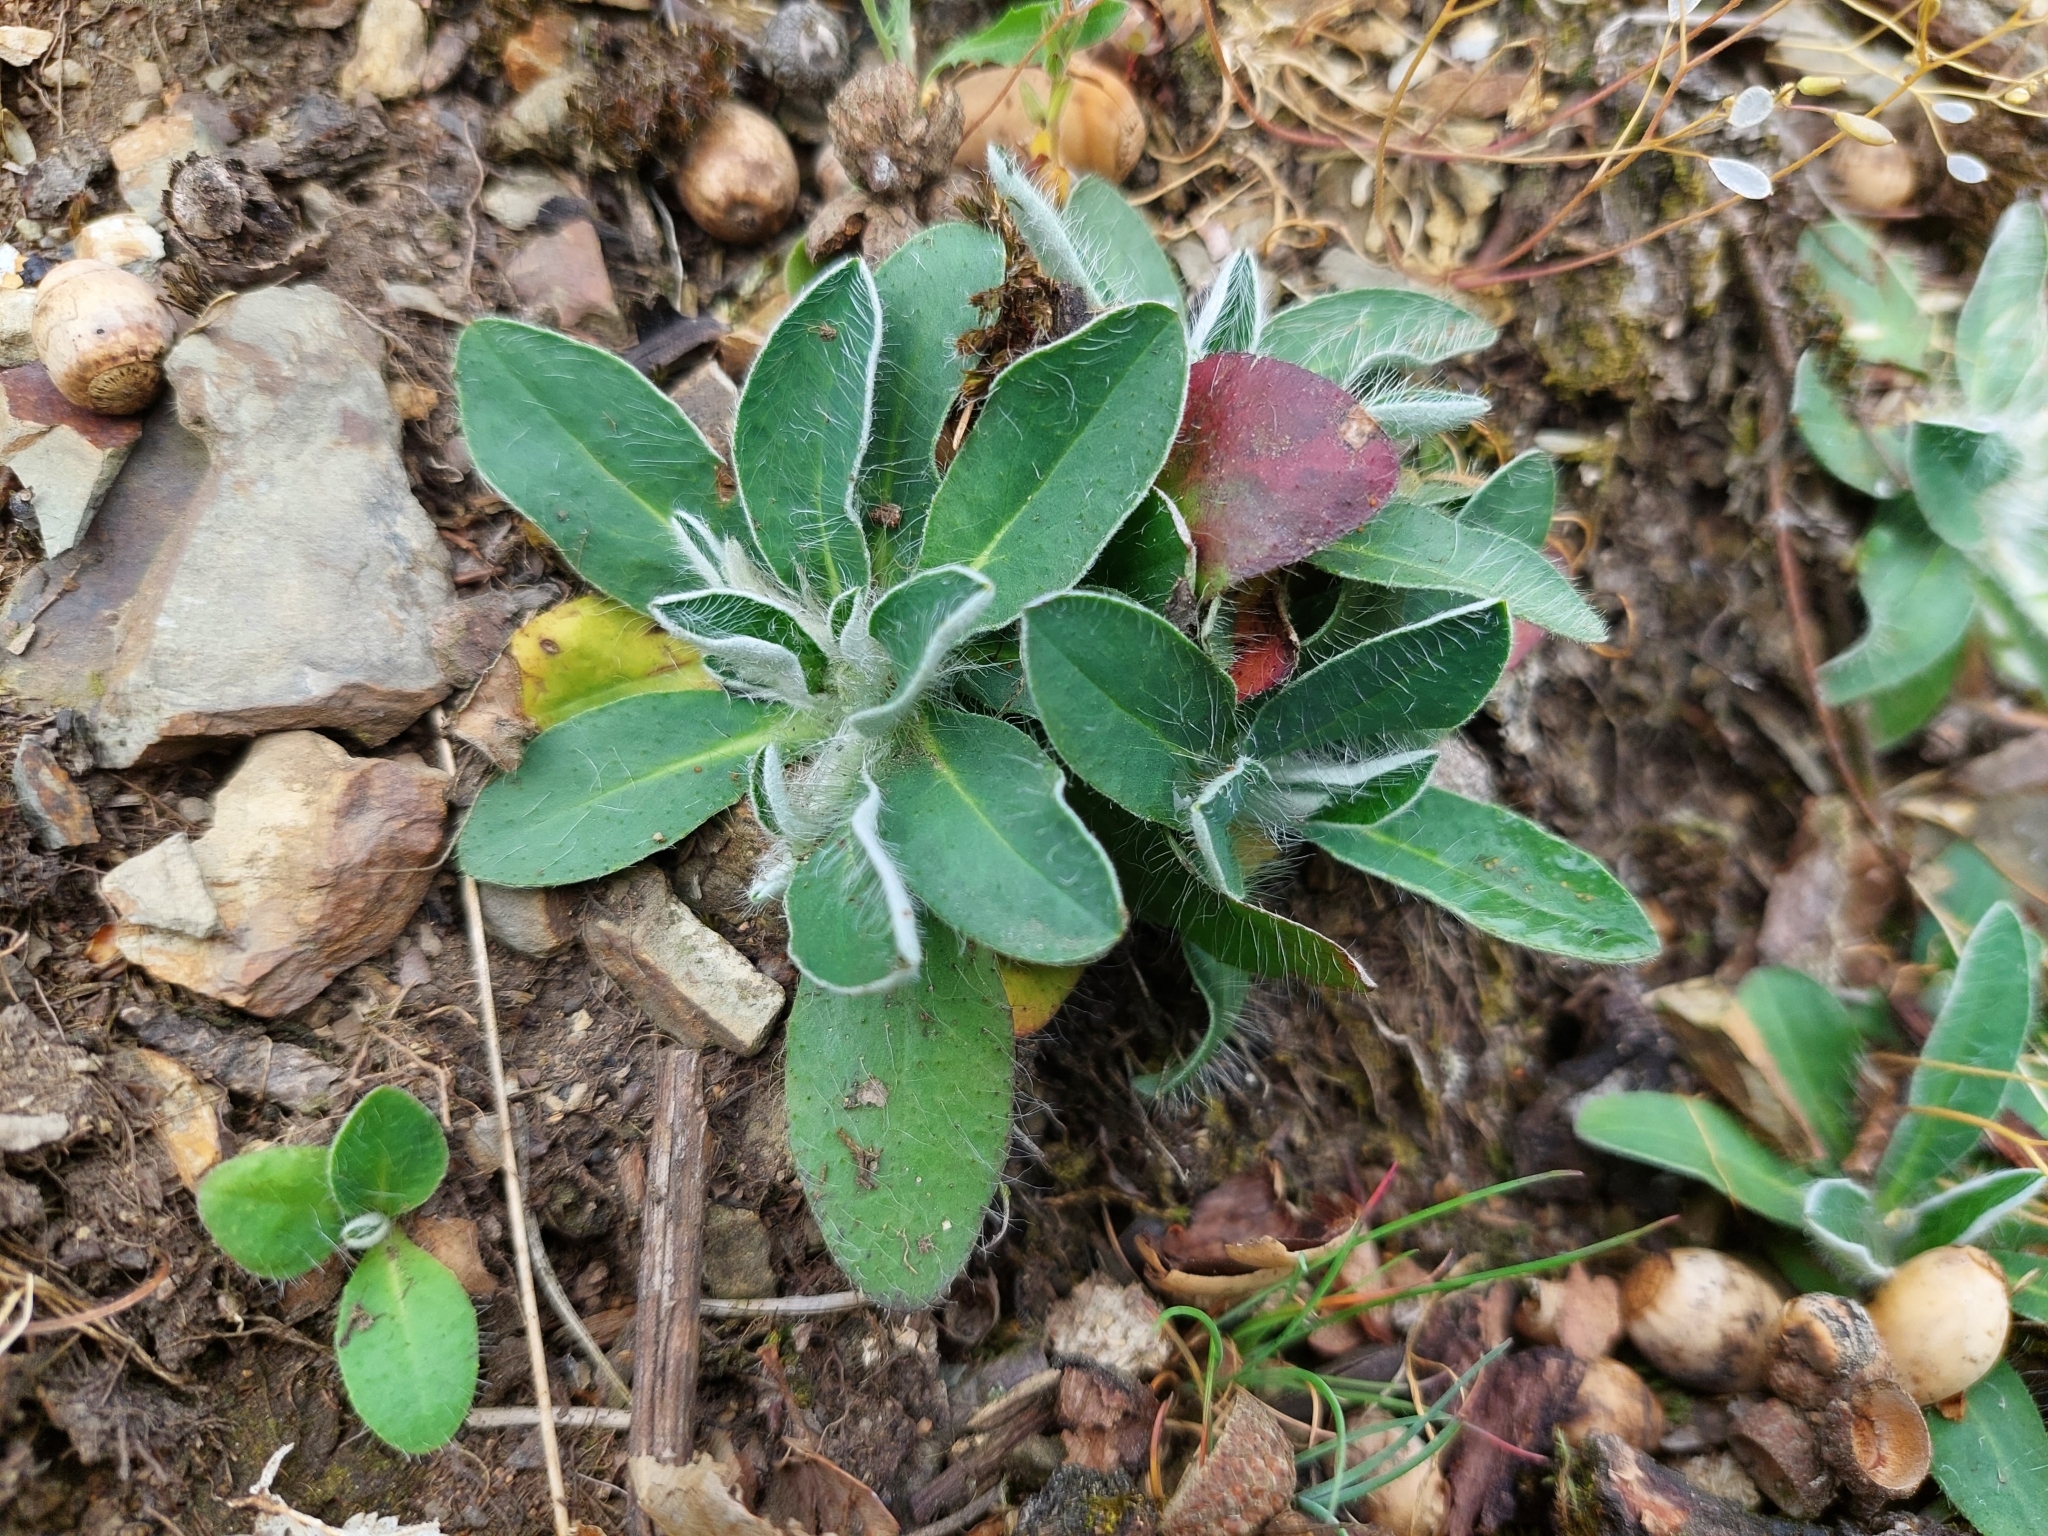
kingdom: Plantae
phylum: Tracheophyta
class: Magnoliopsida
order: Asterales
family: Asteraceae
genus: Pilosella
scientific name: Pilosella officinarum
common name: Mouse-ear hawkweed
